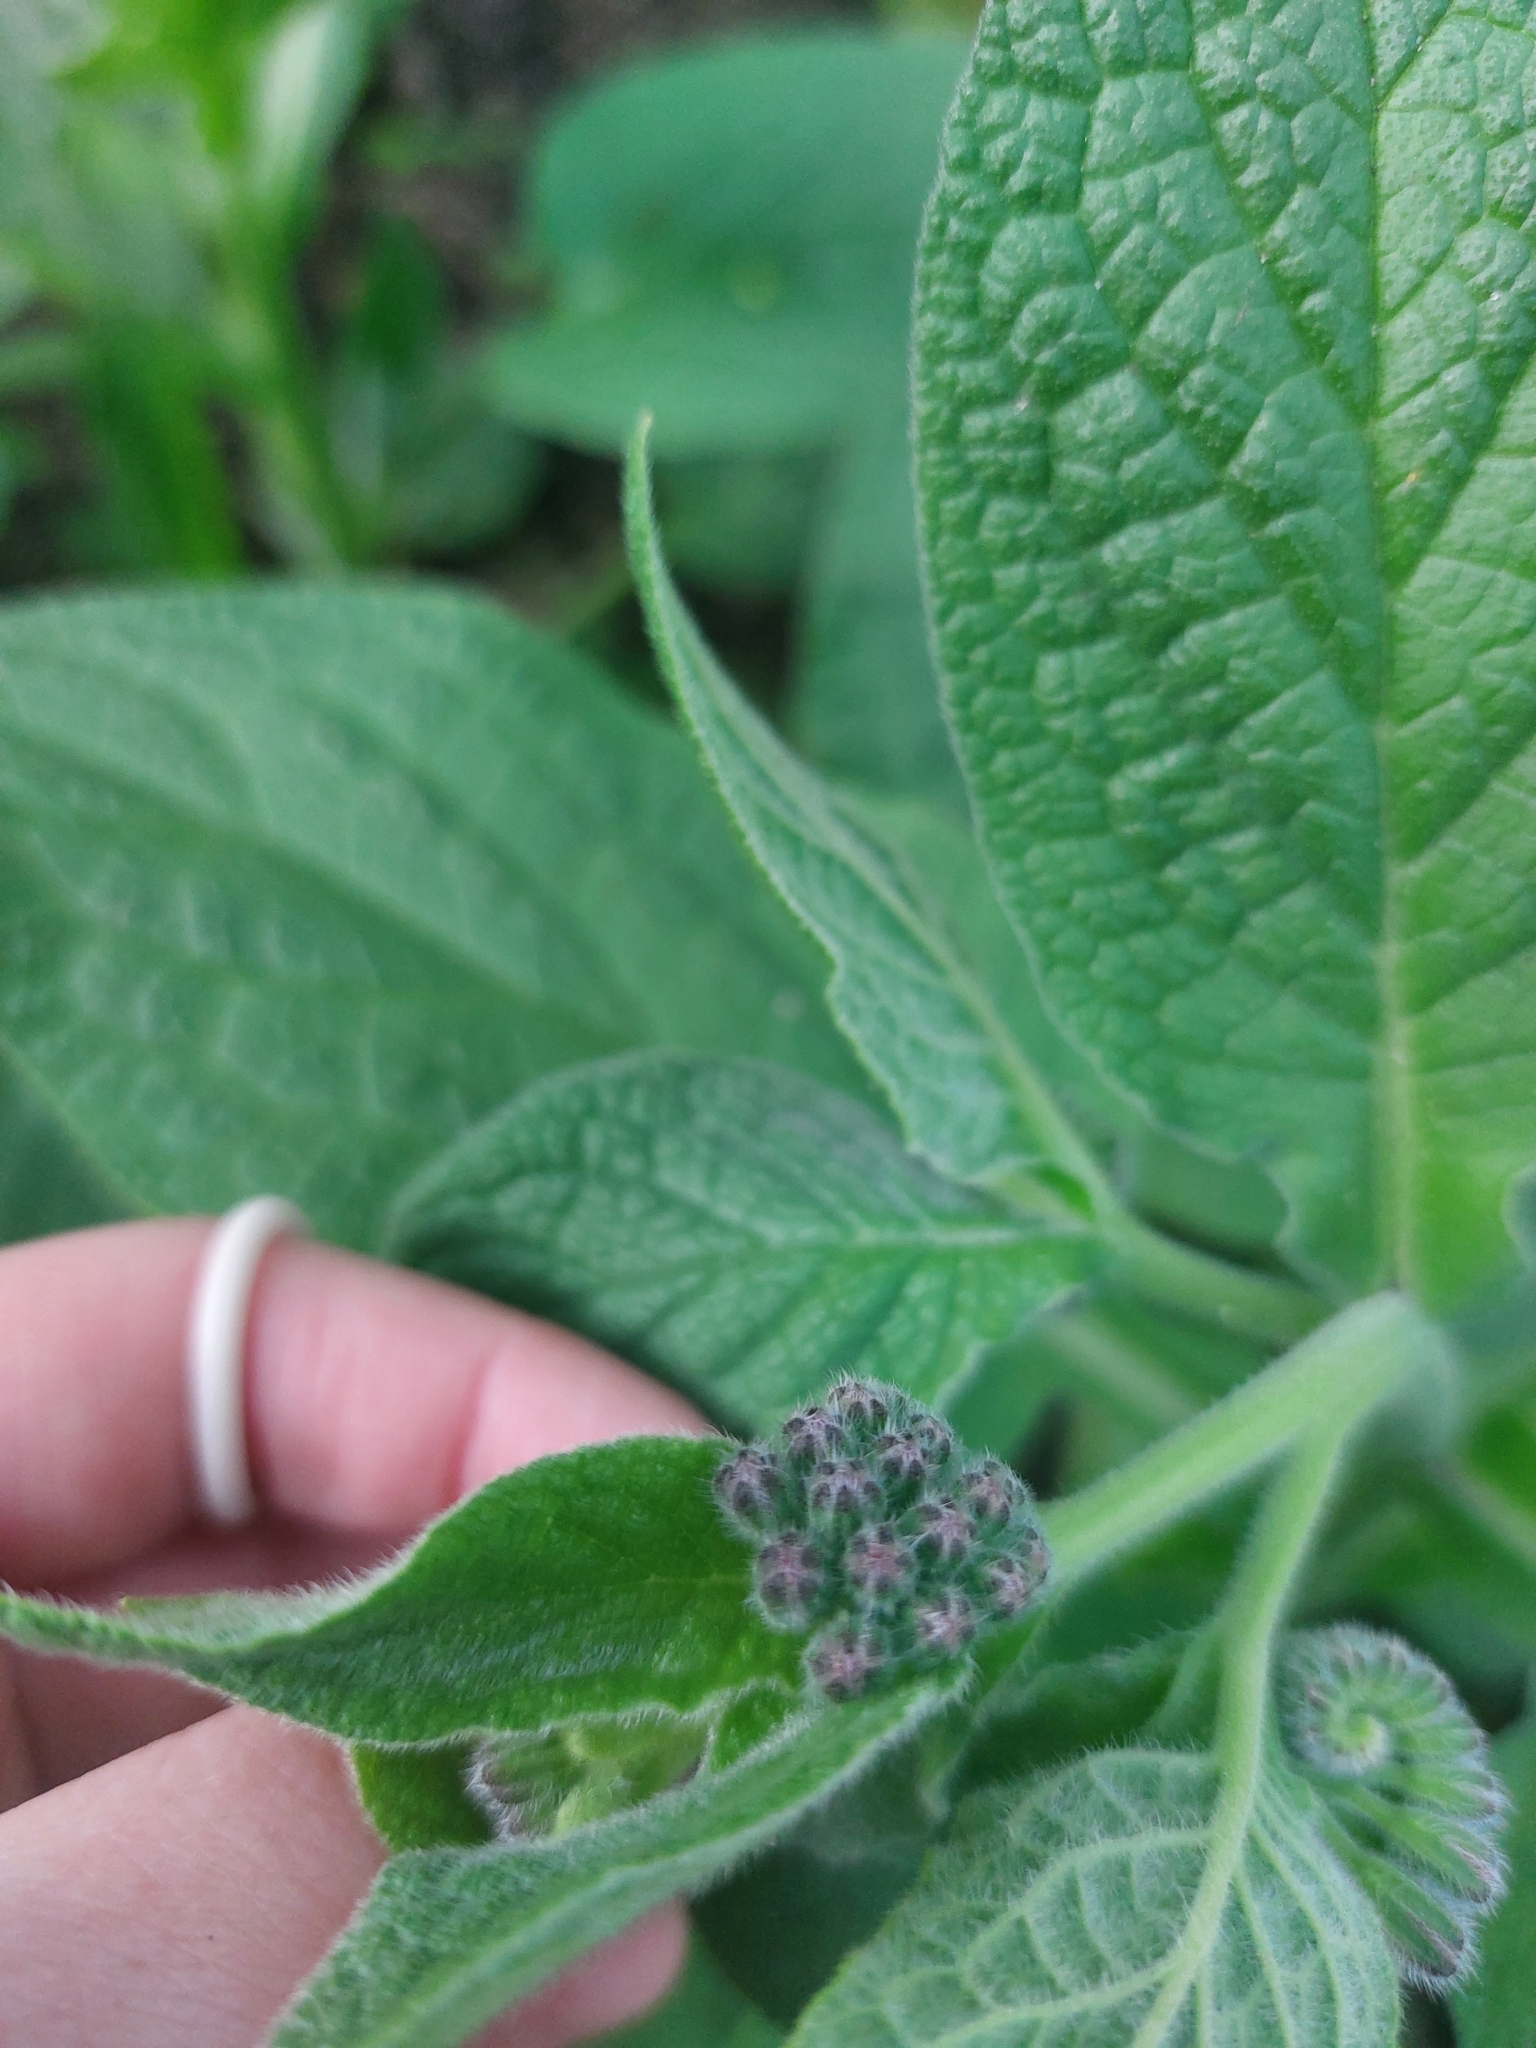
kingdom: Plantae
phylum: Tracheophyta
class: Magnoliopsida
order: Boraginales
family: Boraginaceae
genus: Symphytum
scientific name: Symphytum caucasicum
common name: Caucasian comfrey
